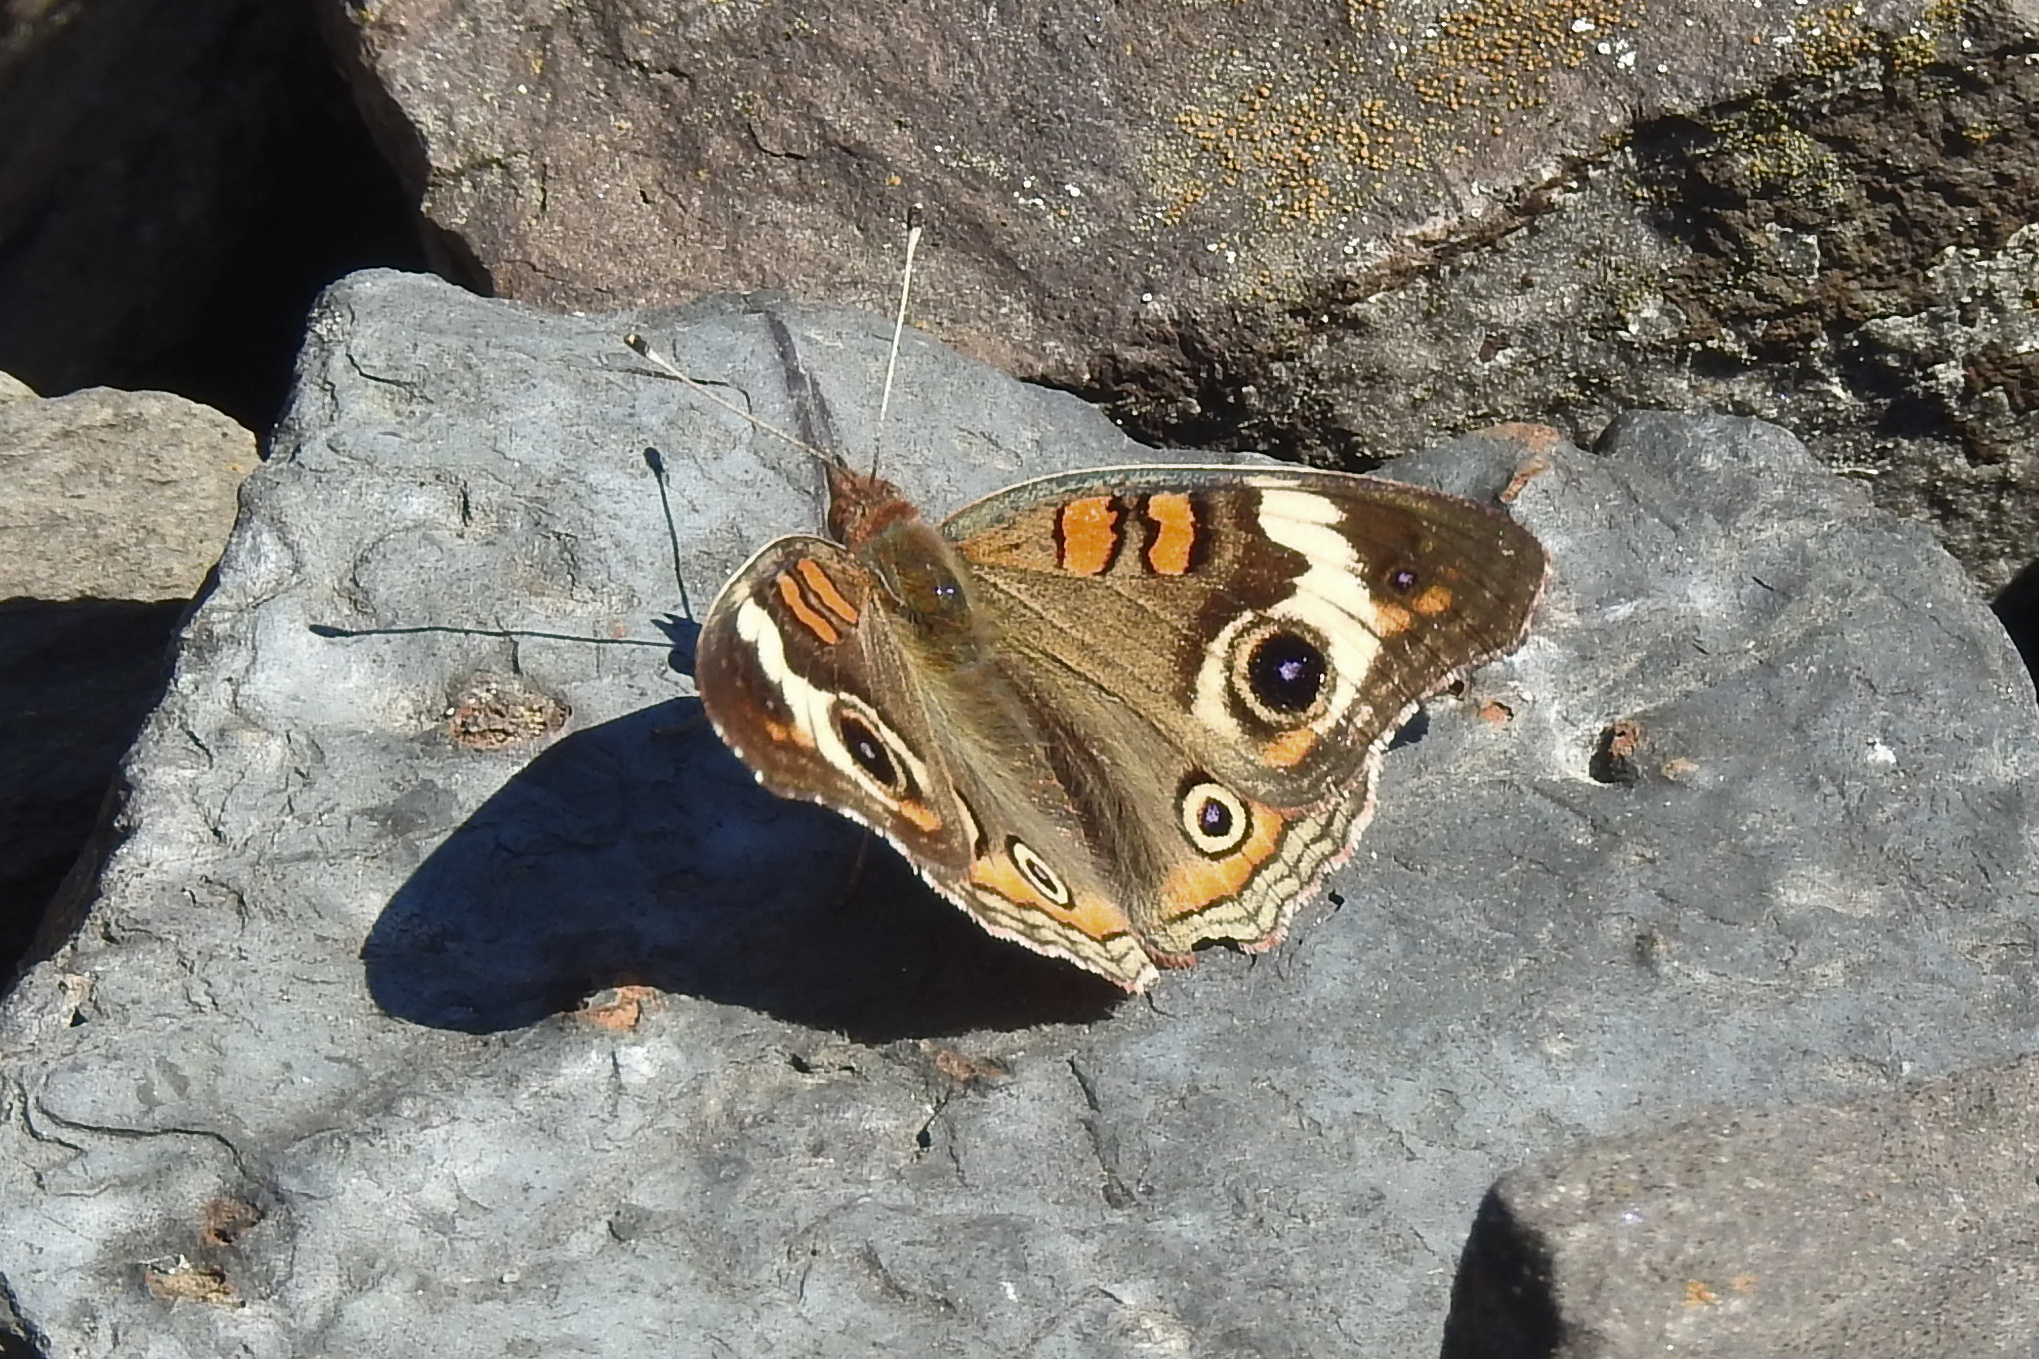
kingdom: Animalia
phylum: Arthropoda
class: Insecta
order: Lepidoptera
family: Nymphalidae
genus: Junonia
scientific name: Junonia coenia
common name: Common buckeye
